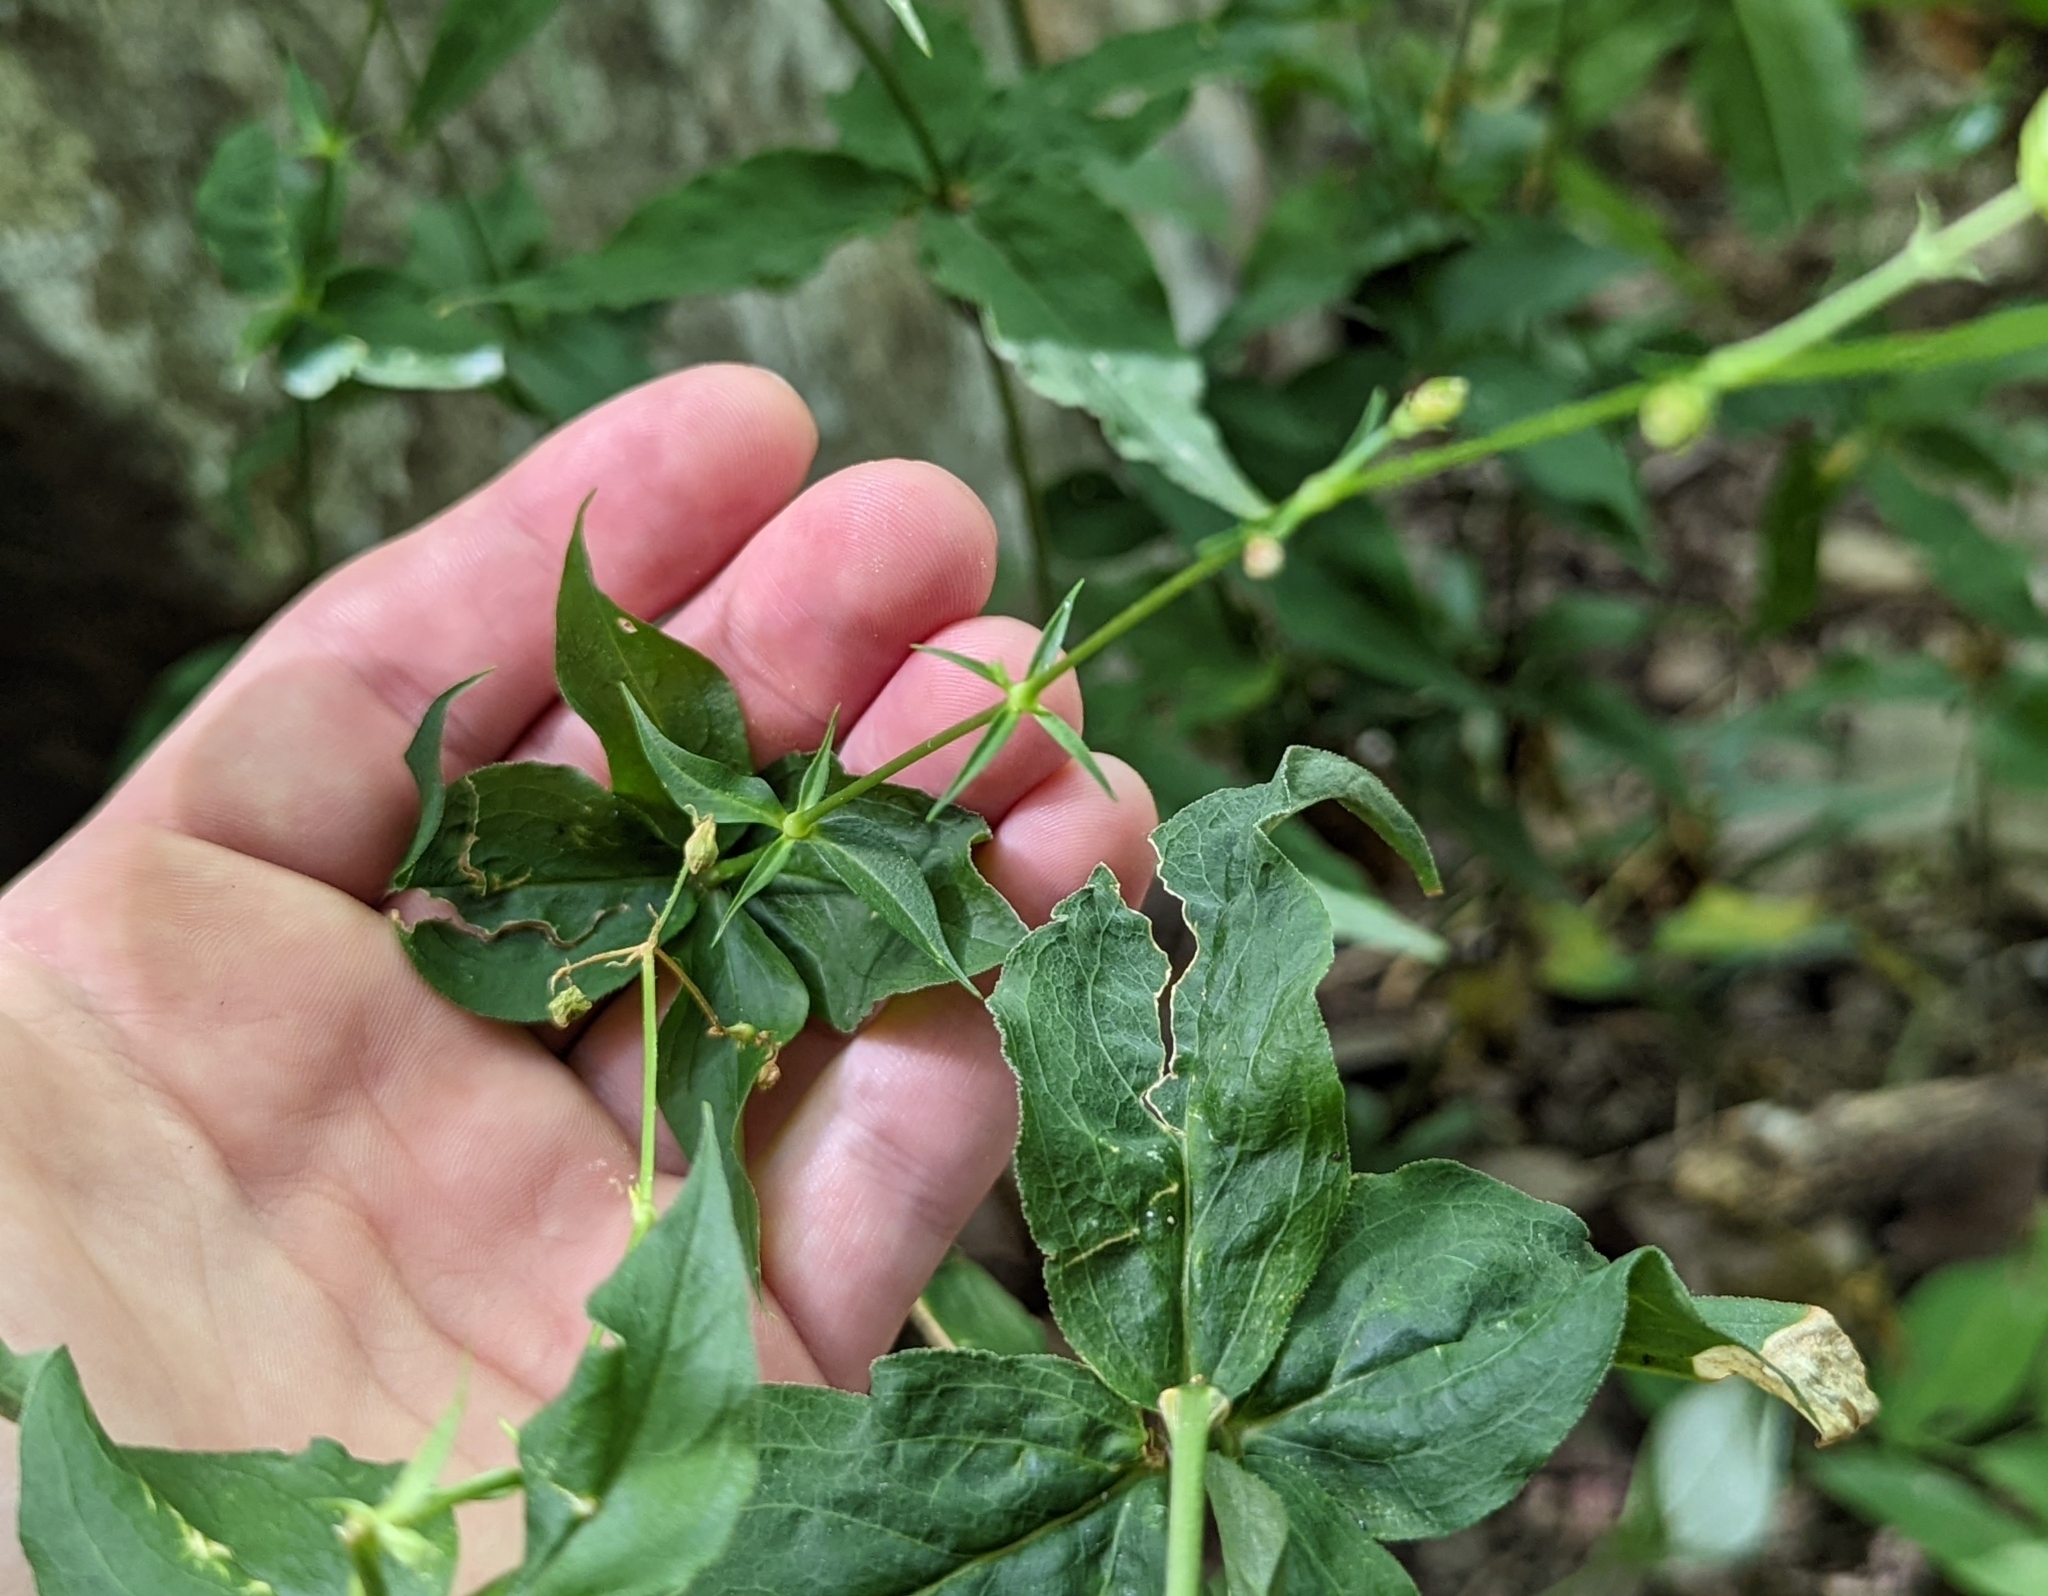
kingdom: Plantae
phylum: Tracheophyta
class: Magnoliopsida
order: Caryophyllales
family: Caryophyllaceae
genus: Silene
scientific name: Silene stellata
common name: Starry campion
